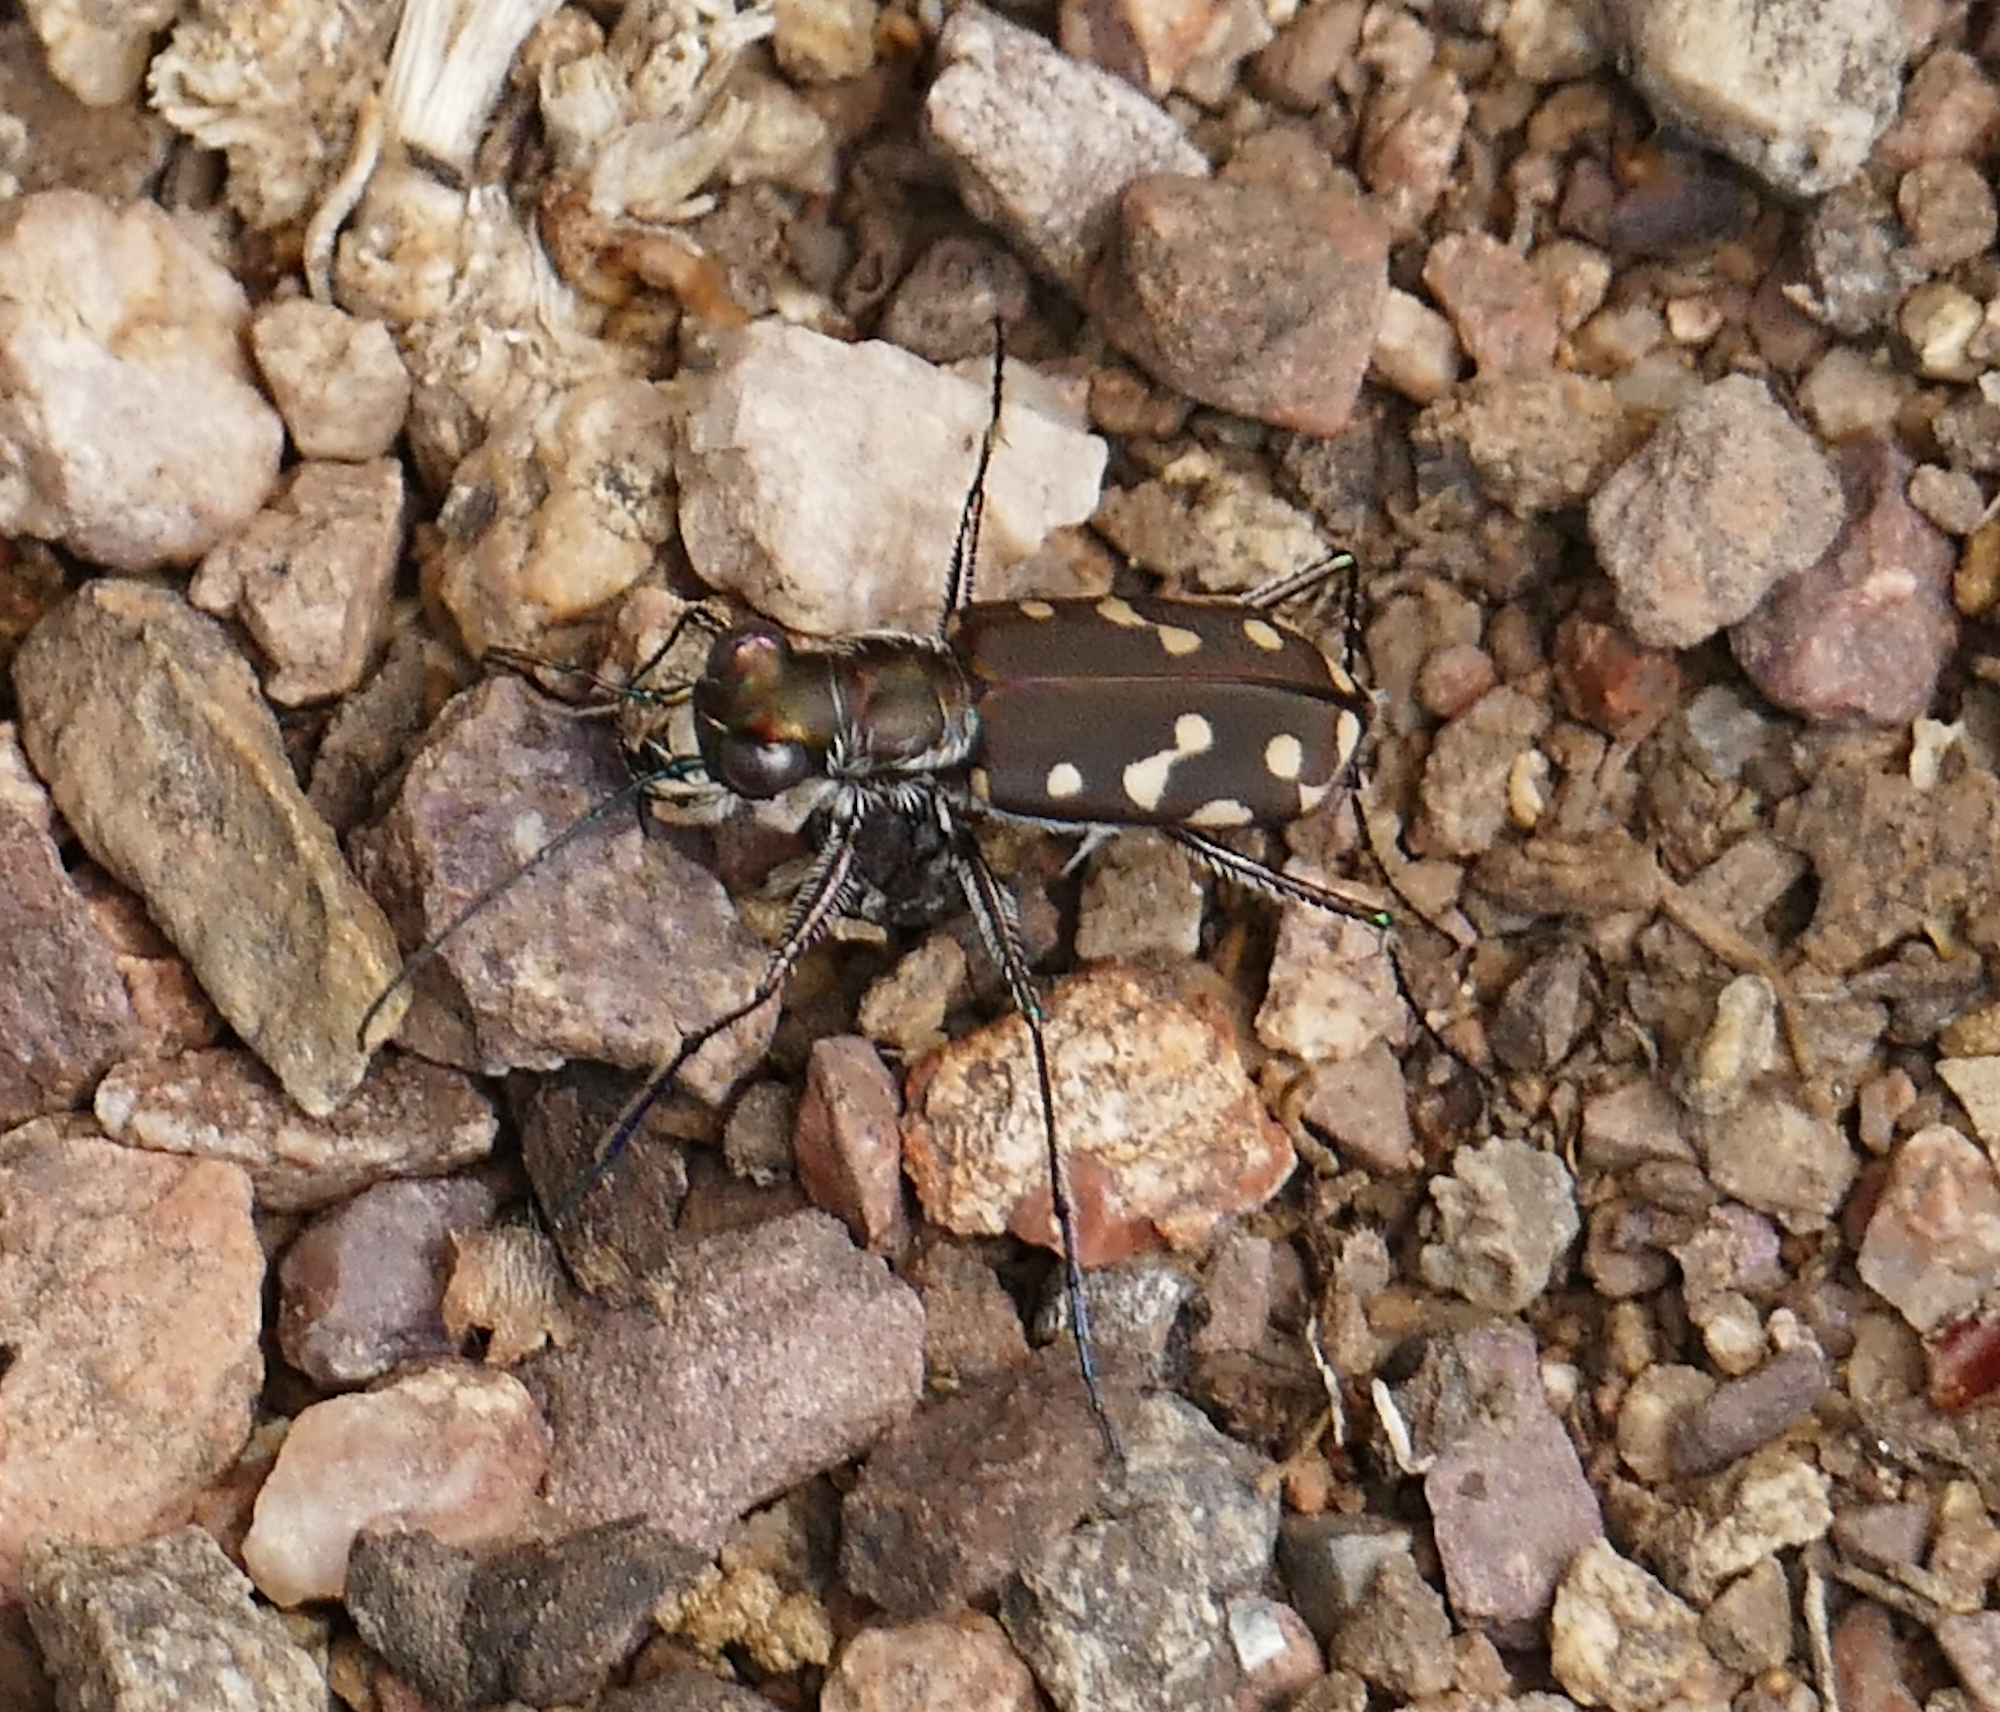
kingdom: Animalia
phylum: Arthropoda
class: Insecta
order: Coleoptera
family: Carabidae
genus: Cicindela
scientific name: Cicindela sedecimpunctata
